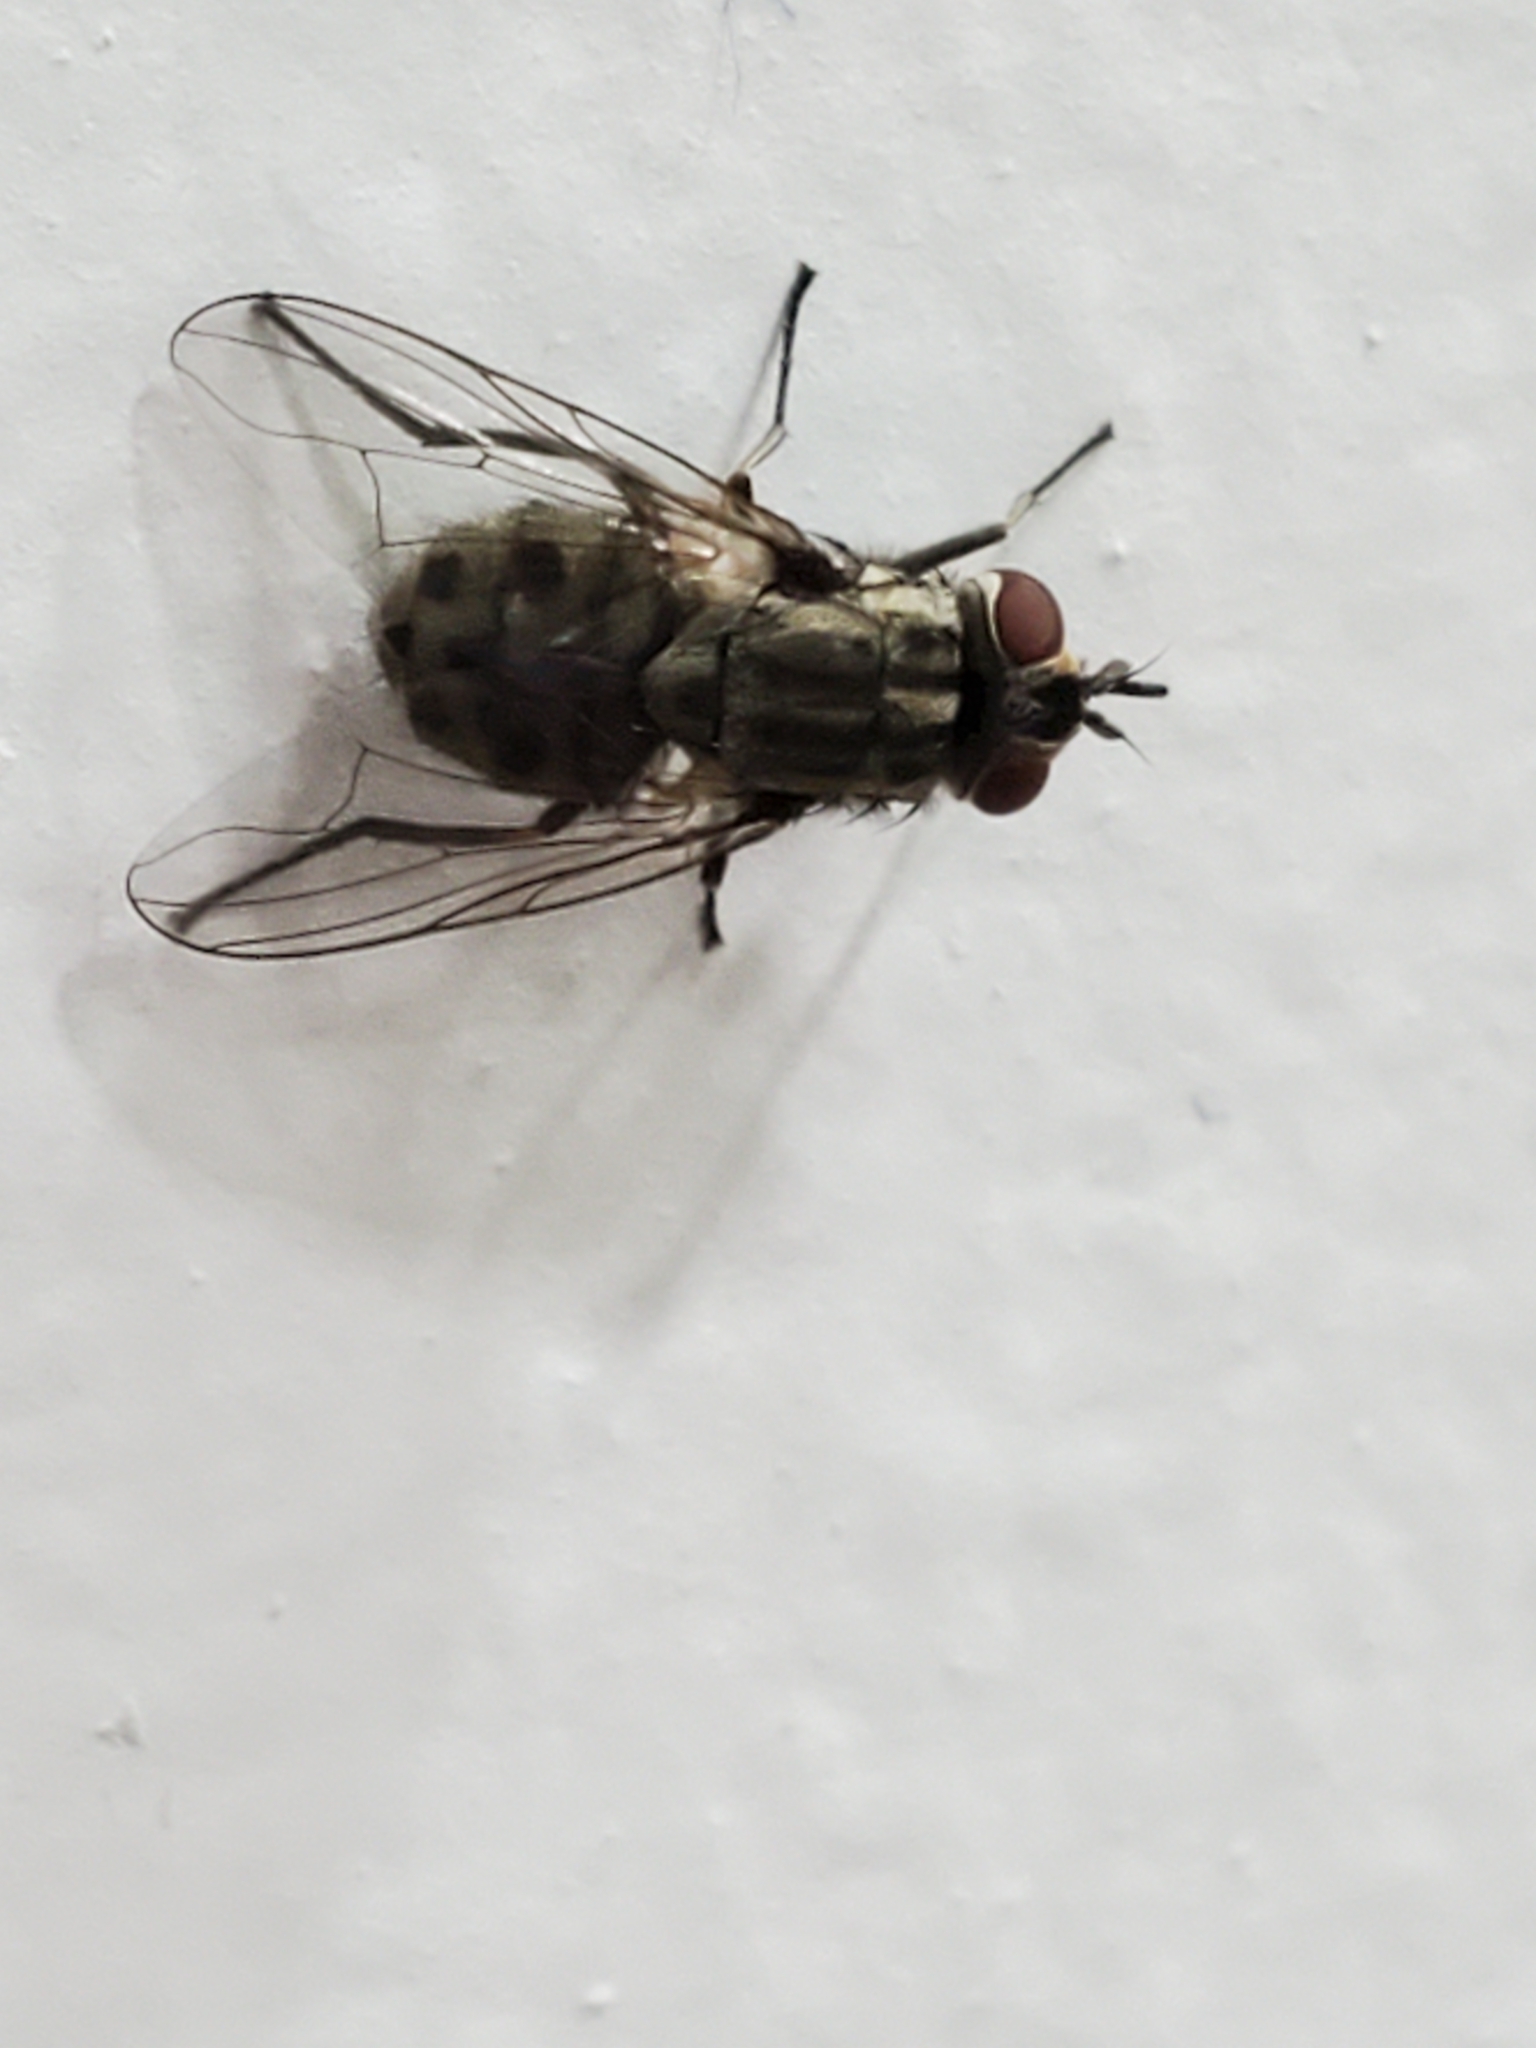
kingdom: Animalia
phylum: Arthropoda
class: Insecta
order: Diptera
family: Muscidae
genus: Stomoxys
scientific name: Stomoxys calcitrans
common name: Stable fly
